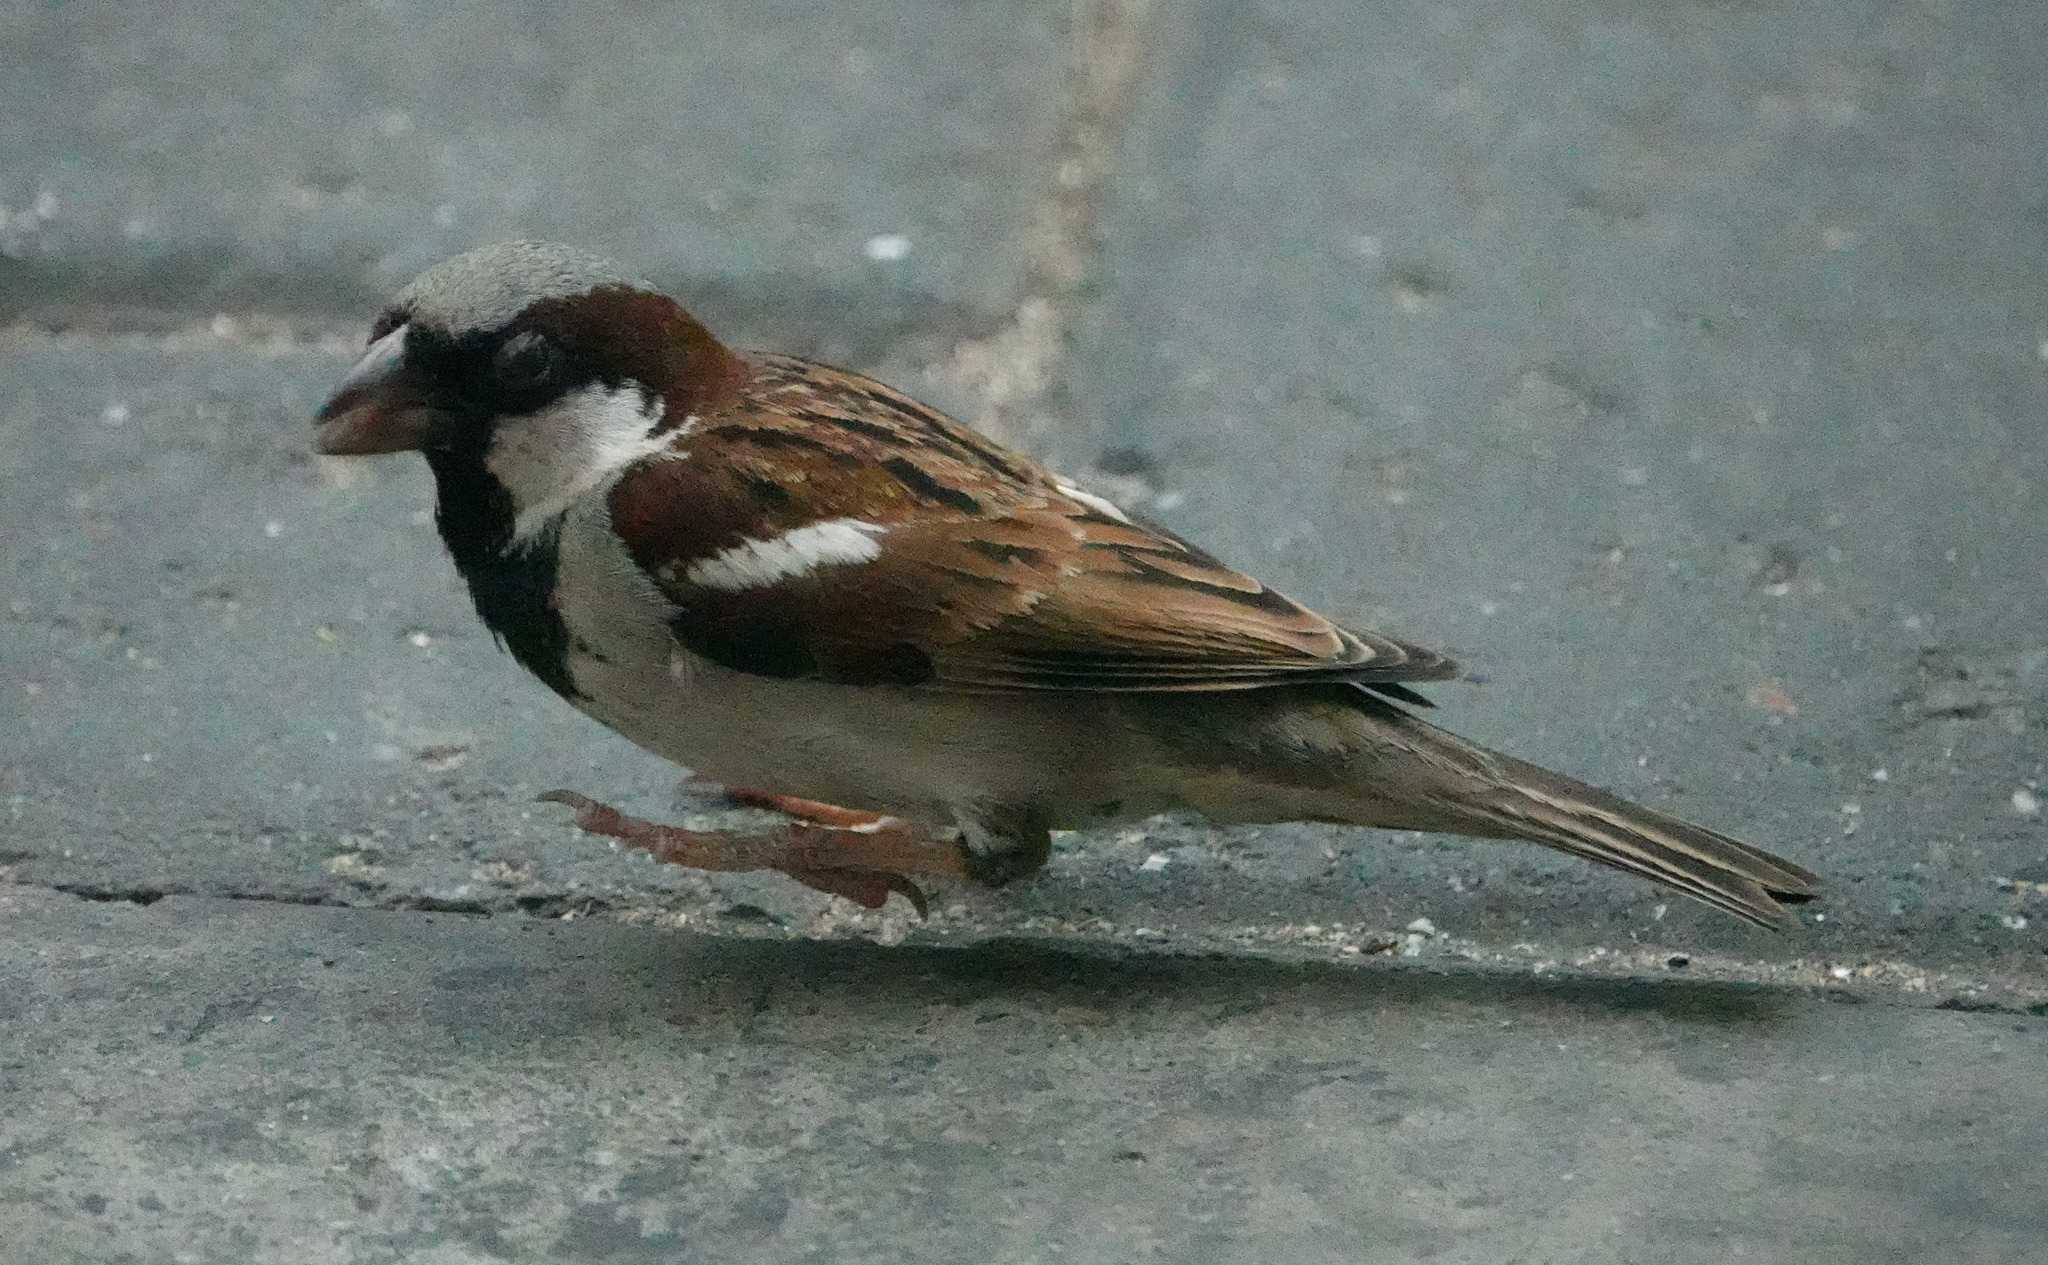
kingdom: Animalia
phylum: Chordata
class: Aves
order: Passeriformes
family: Passeridae
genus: Passer
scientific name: Passer domesticus
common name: House sparrow
